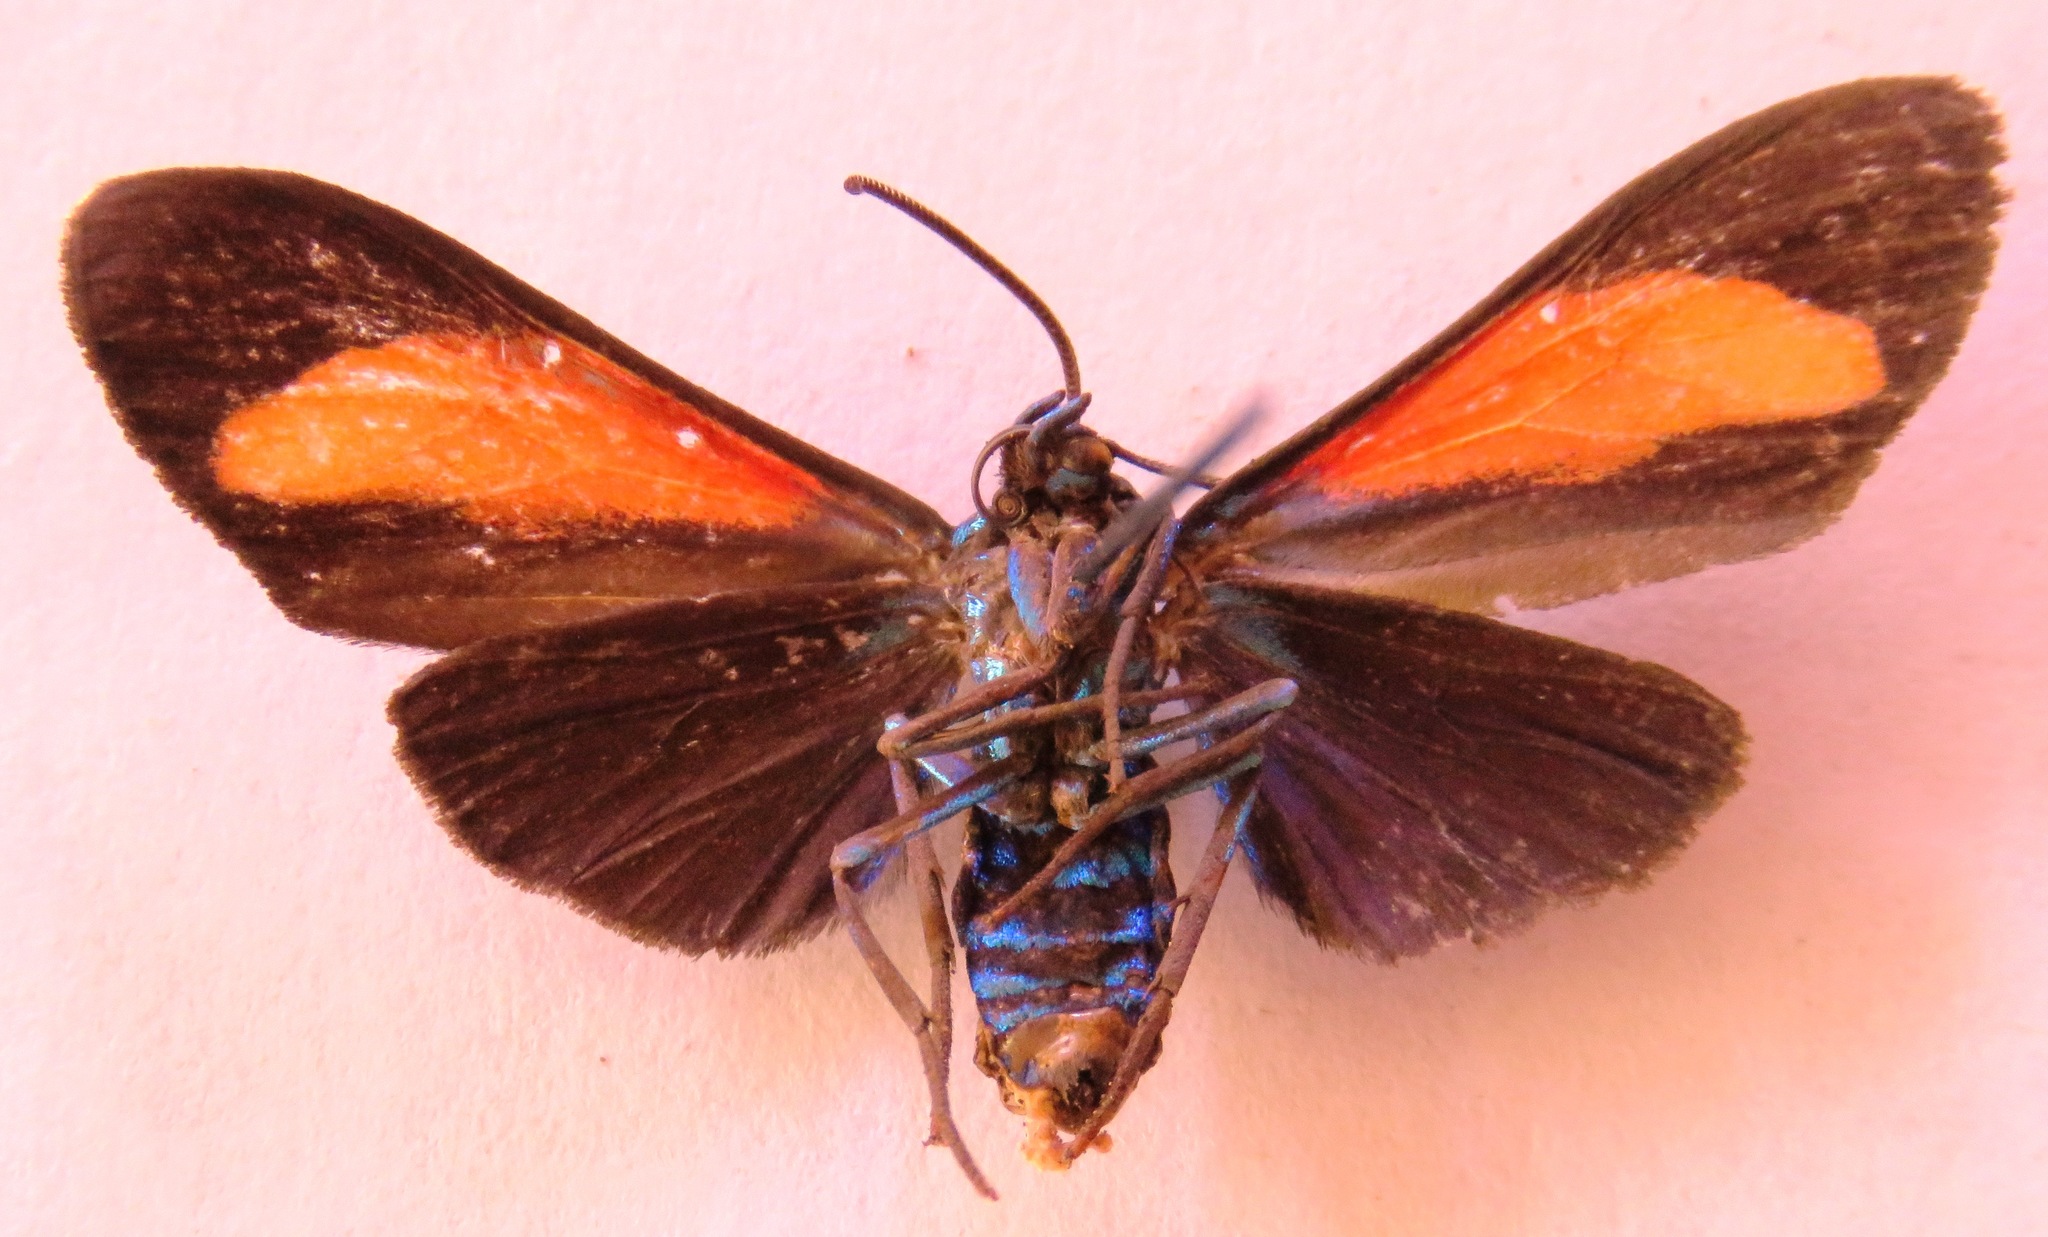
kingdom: Animalia
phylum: Arthropoda
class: Insecta
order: Lepidoptera
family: Erebidae
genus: Cyanopepla
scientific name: Cyanopepla bella
